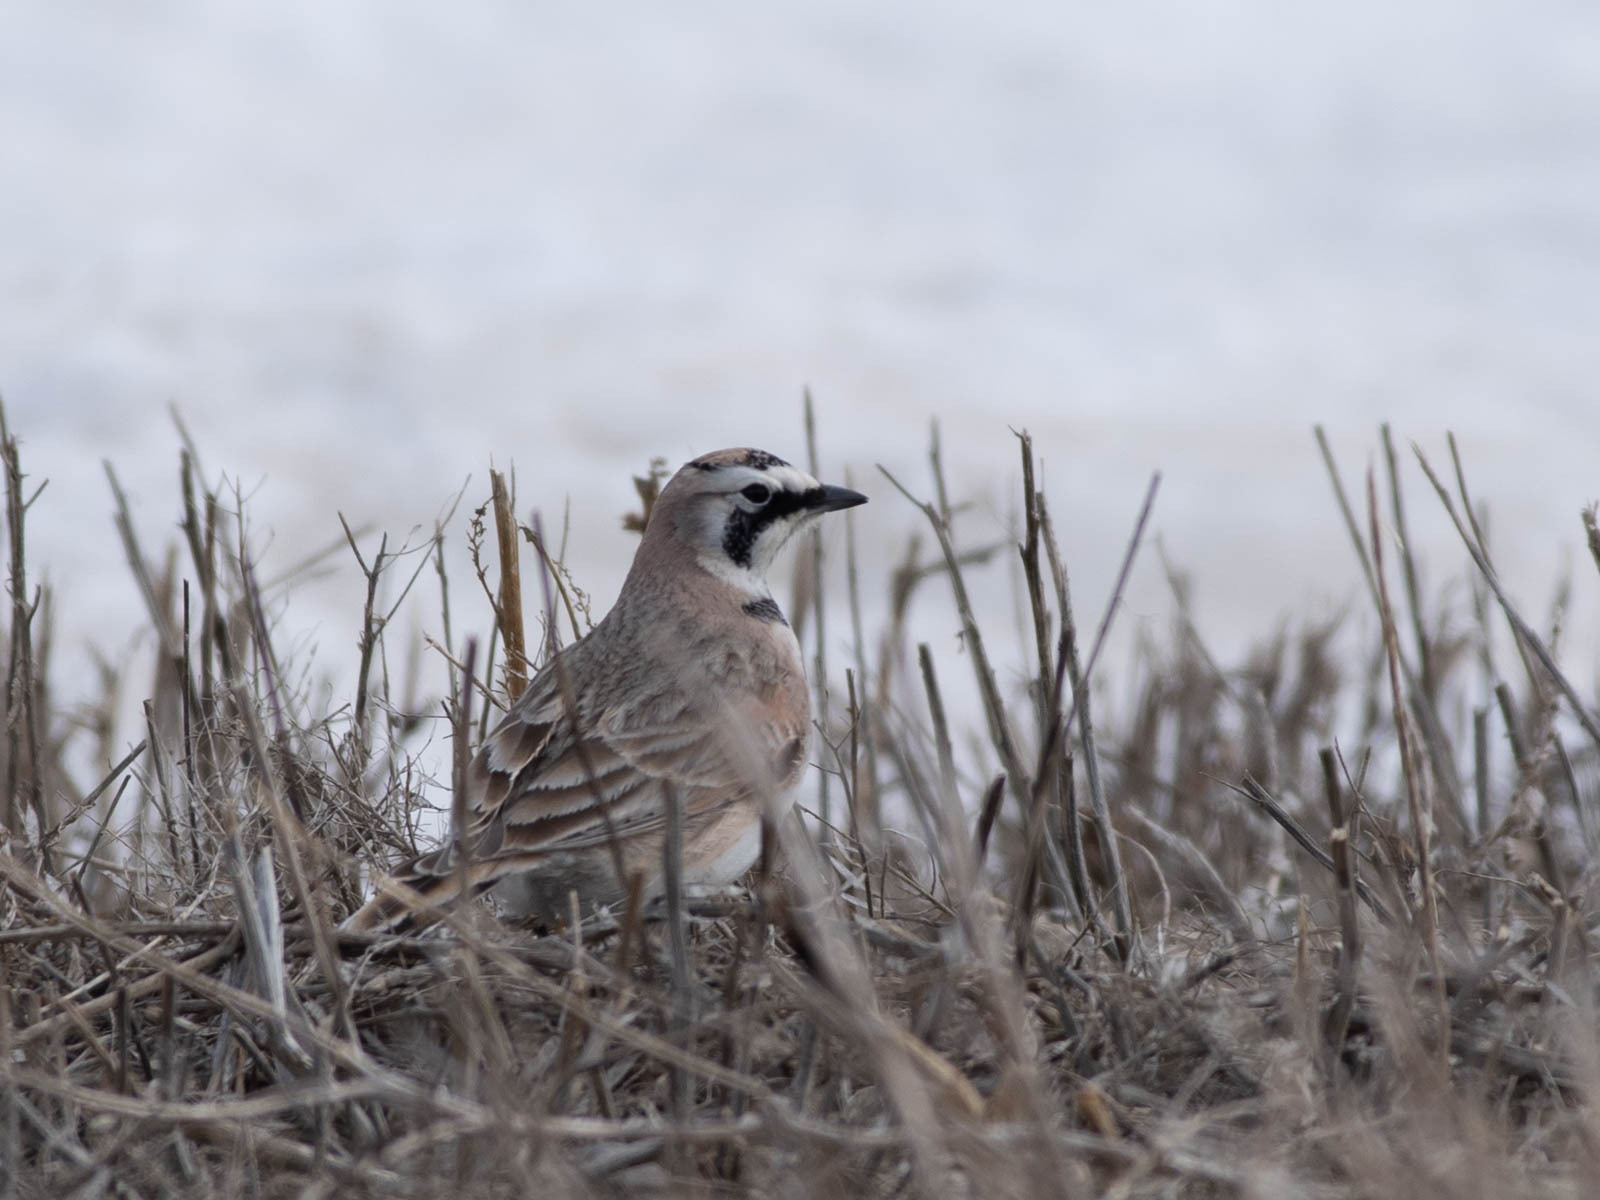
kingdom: Animalia
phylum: Chordata
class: Aves
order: Passeriformes
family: Alaudidae
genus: Eremophila
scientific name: Eremophila alpestris
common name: Horned lark
